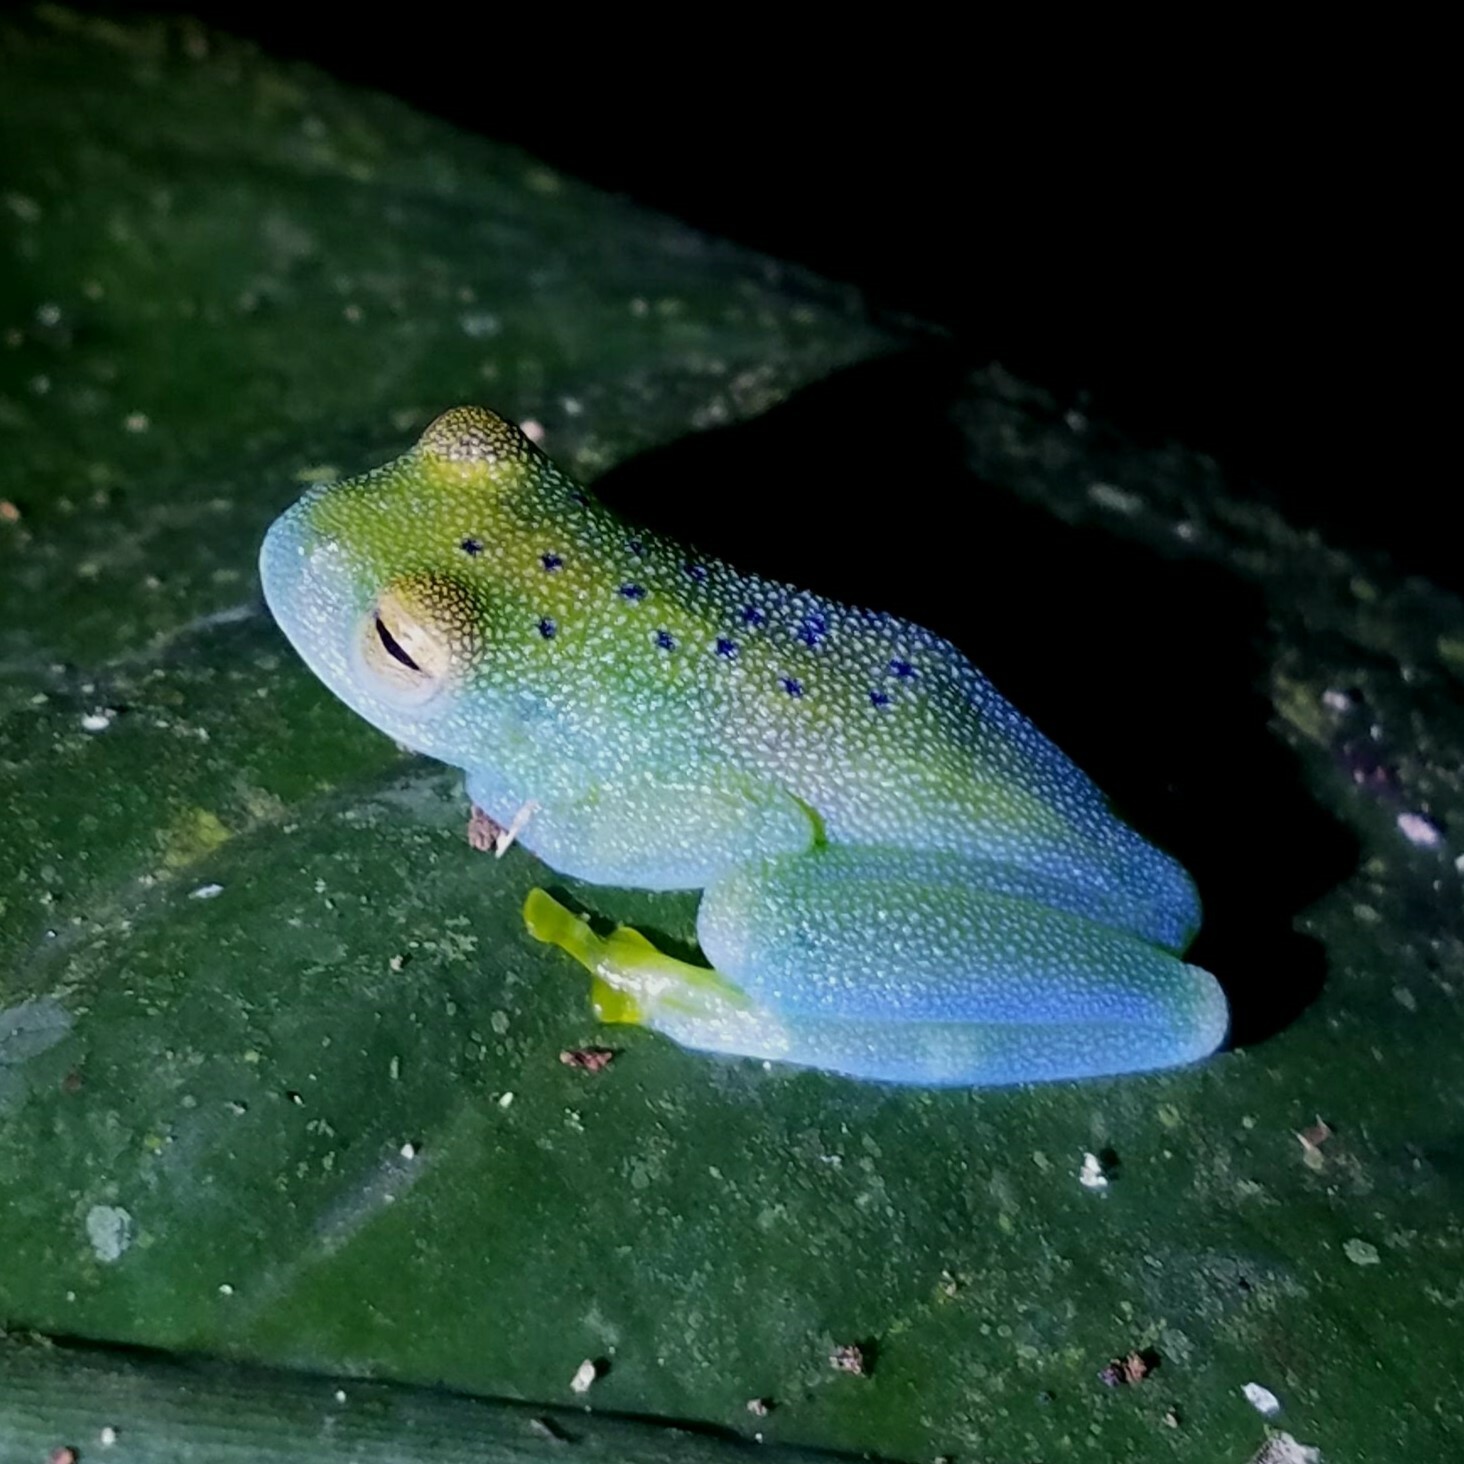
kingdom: Animalia
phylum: Chordata
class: Amphibia
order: Anura
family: Centrolenidae
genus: Cochranella
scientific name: Cochranella granulosa
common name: Grainy cochran frog
